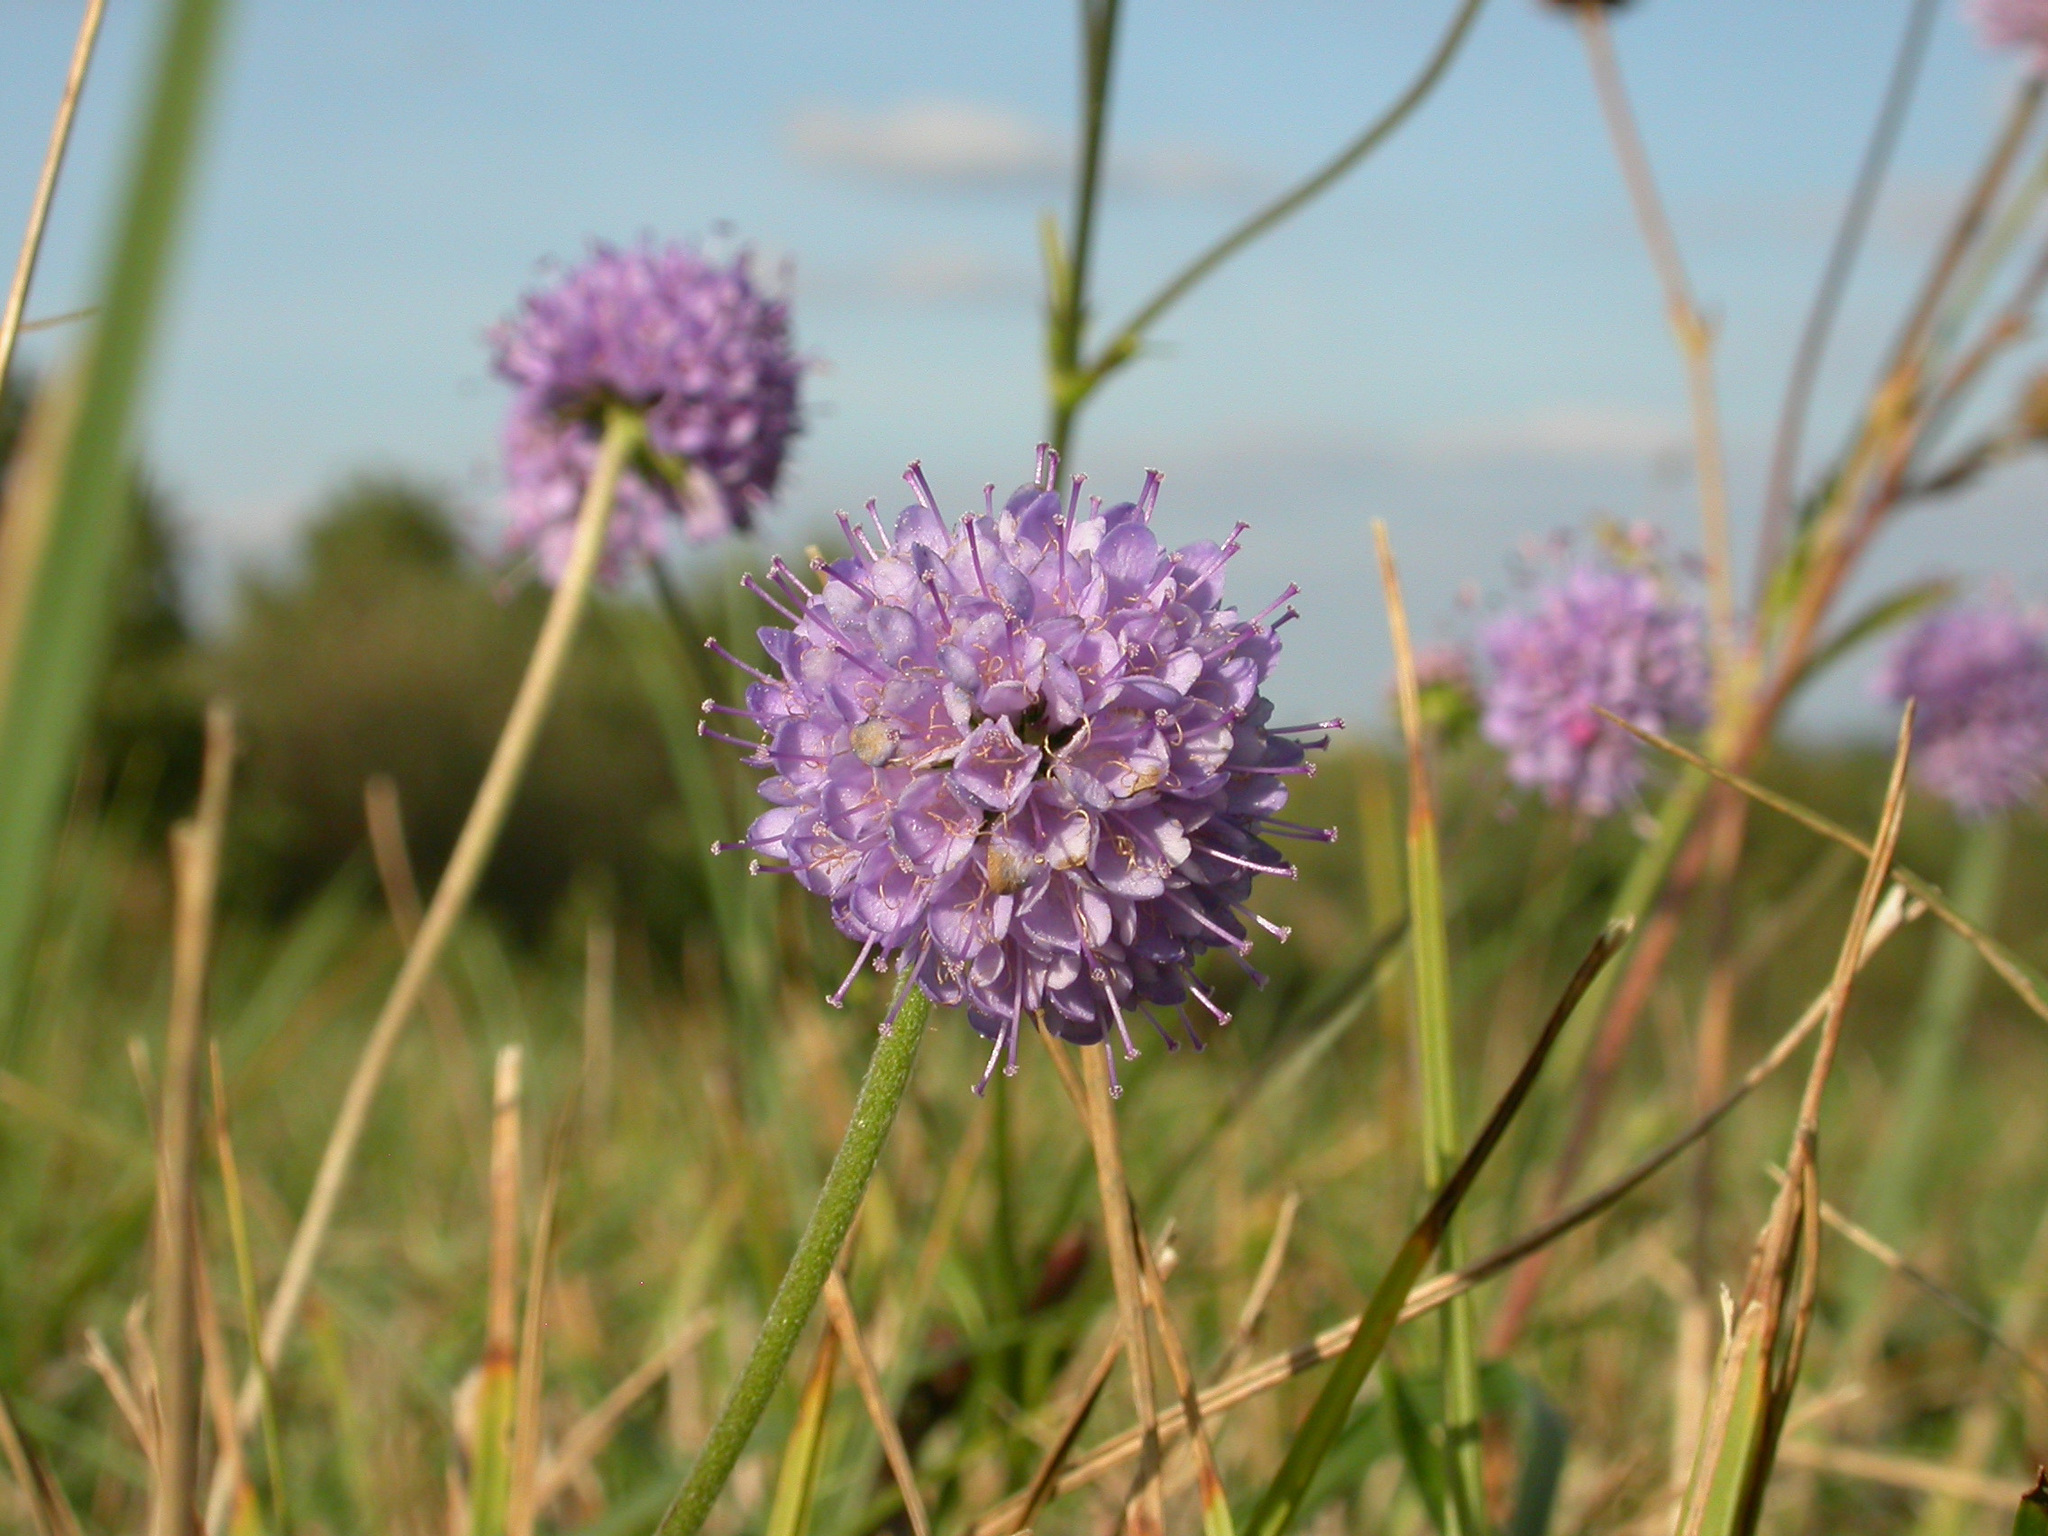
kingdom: Plantae
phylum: Tracheophyta
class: Magnoliopsida
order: Dipsacales
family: Caprifoliaceae
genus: Succisa
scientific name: Succisa pratensis
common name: Devil's-bit
